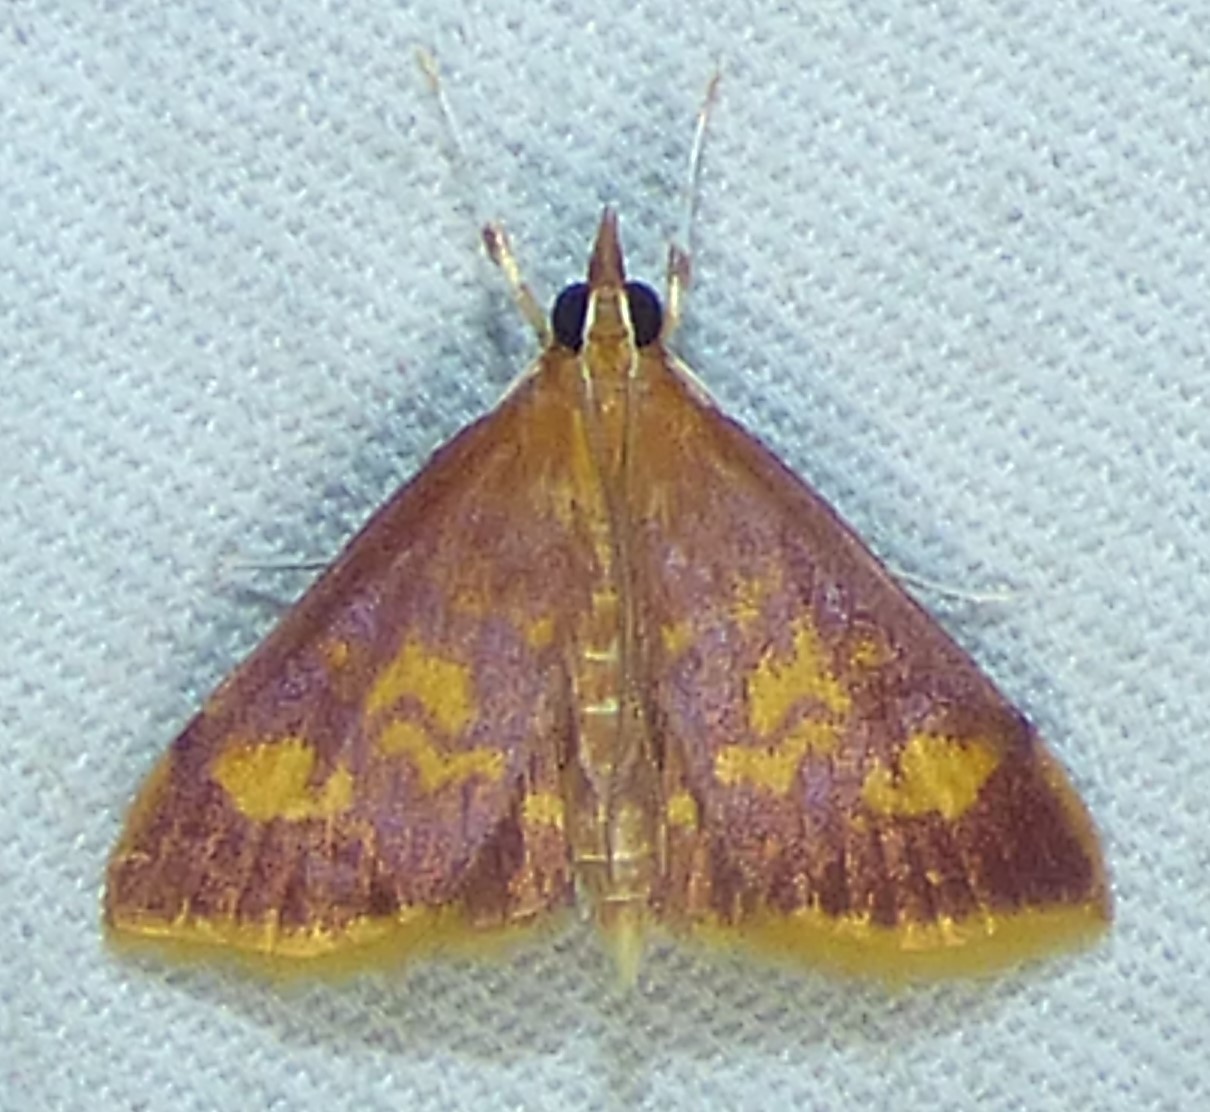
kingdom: Animalia
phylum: Arthropoda
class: Insecta
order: Lepidoptera
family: Crambidae
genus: Pyrausta
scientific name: Pyrausta acrionalis
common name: Mint-loving pyrausta moth
